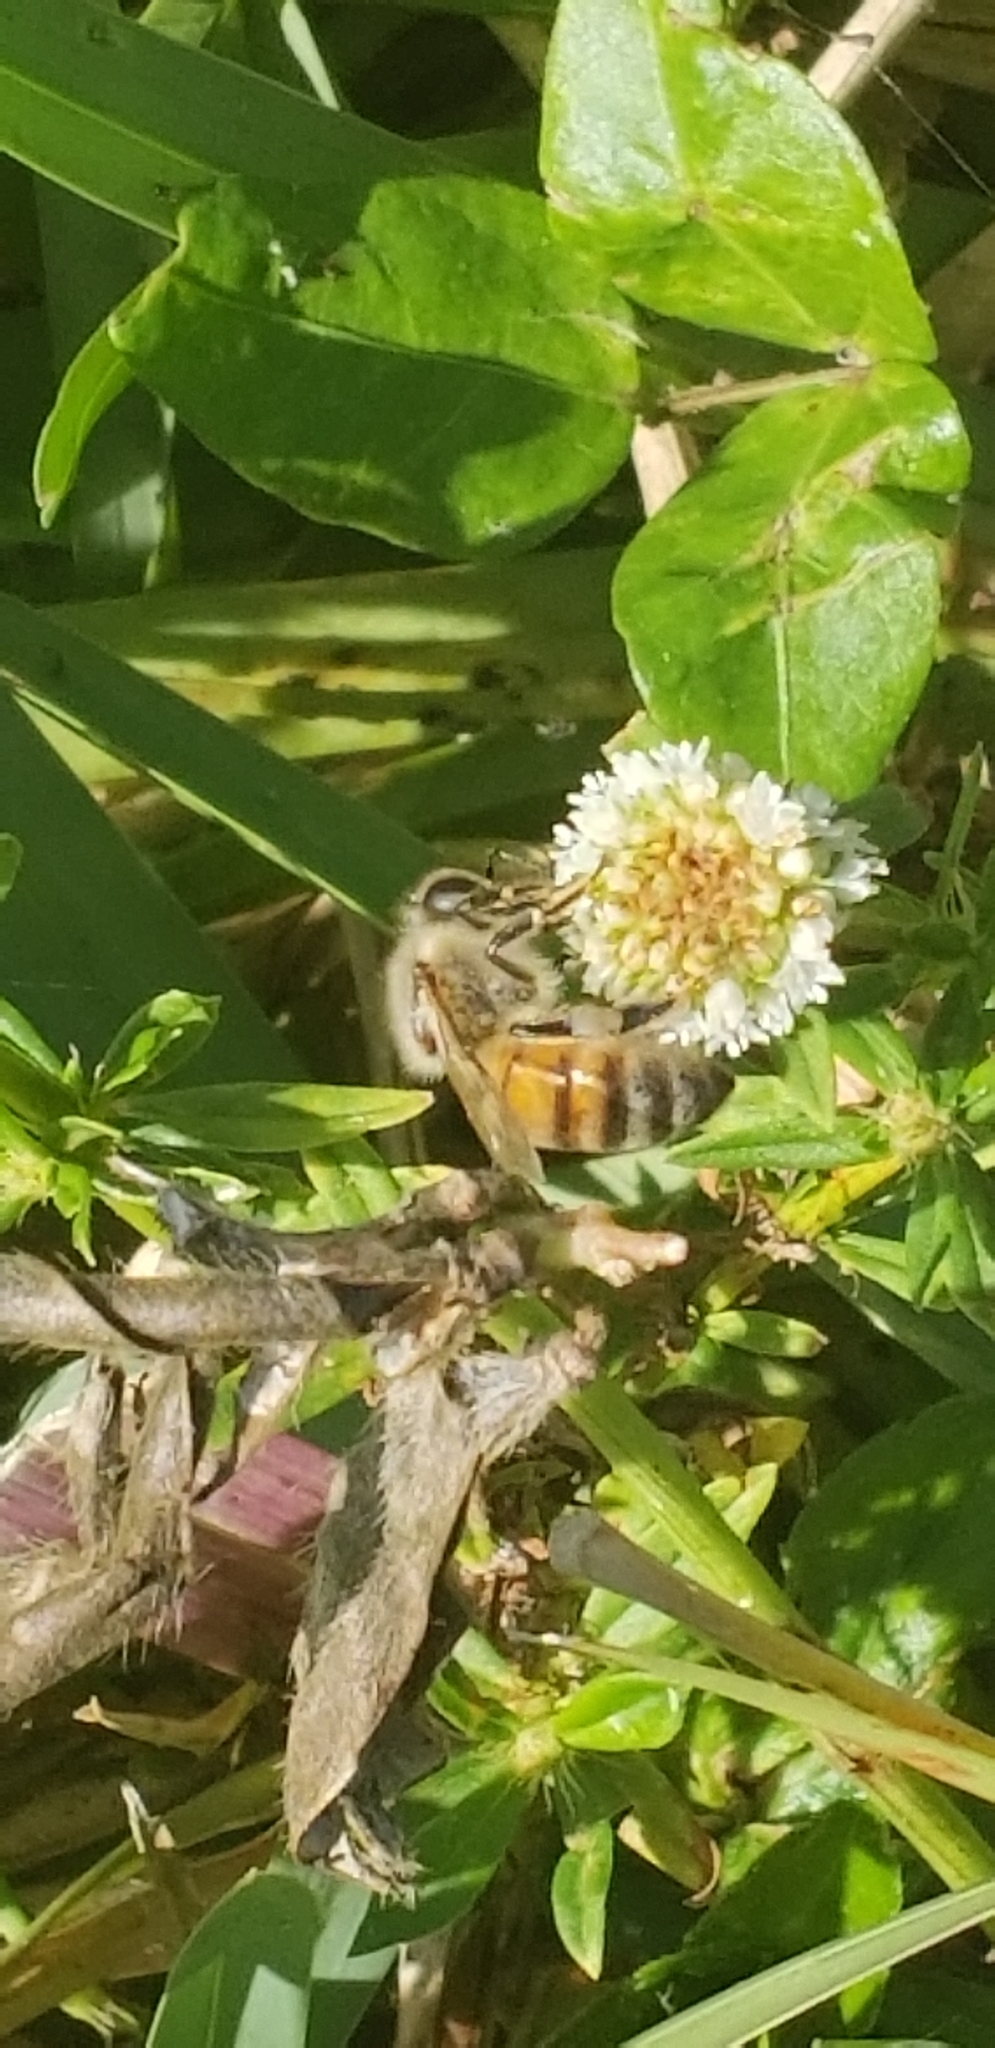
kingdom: Animalia
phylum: Arthropoda
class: Insecta
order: Hymenoptera
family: Apidae
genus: Apis
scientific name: Apis mellifera
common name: Honey bee
